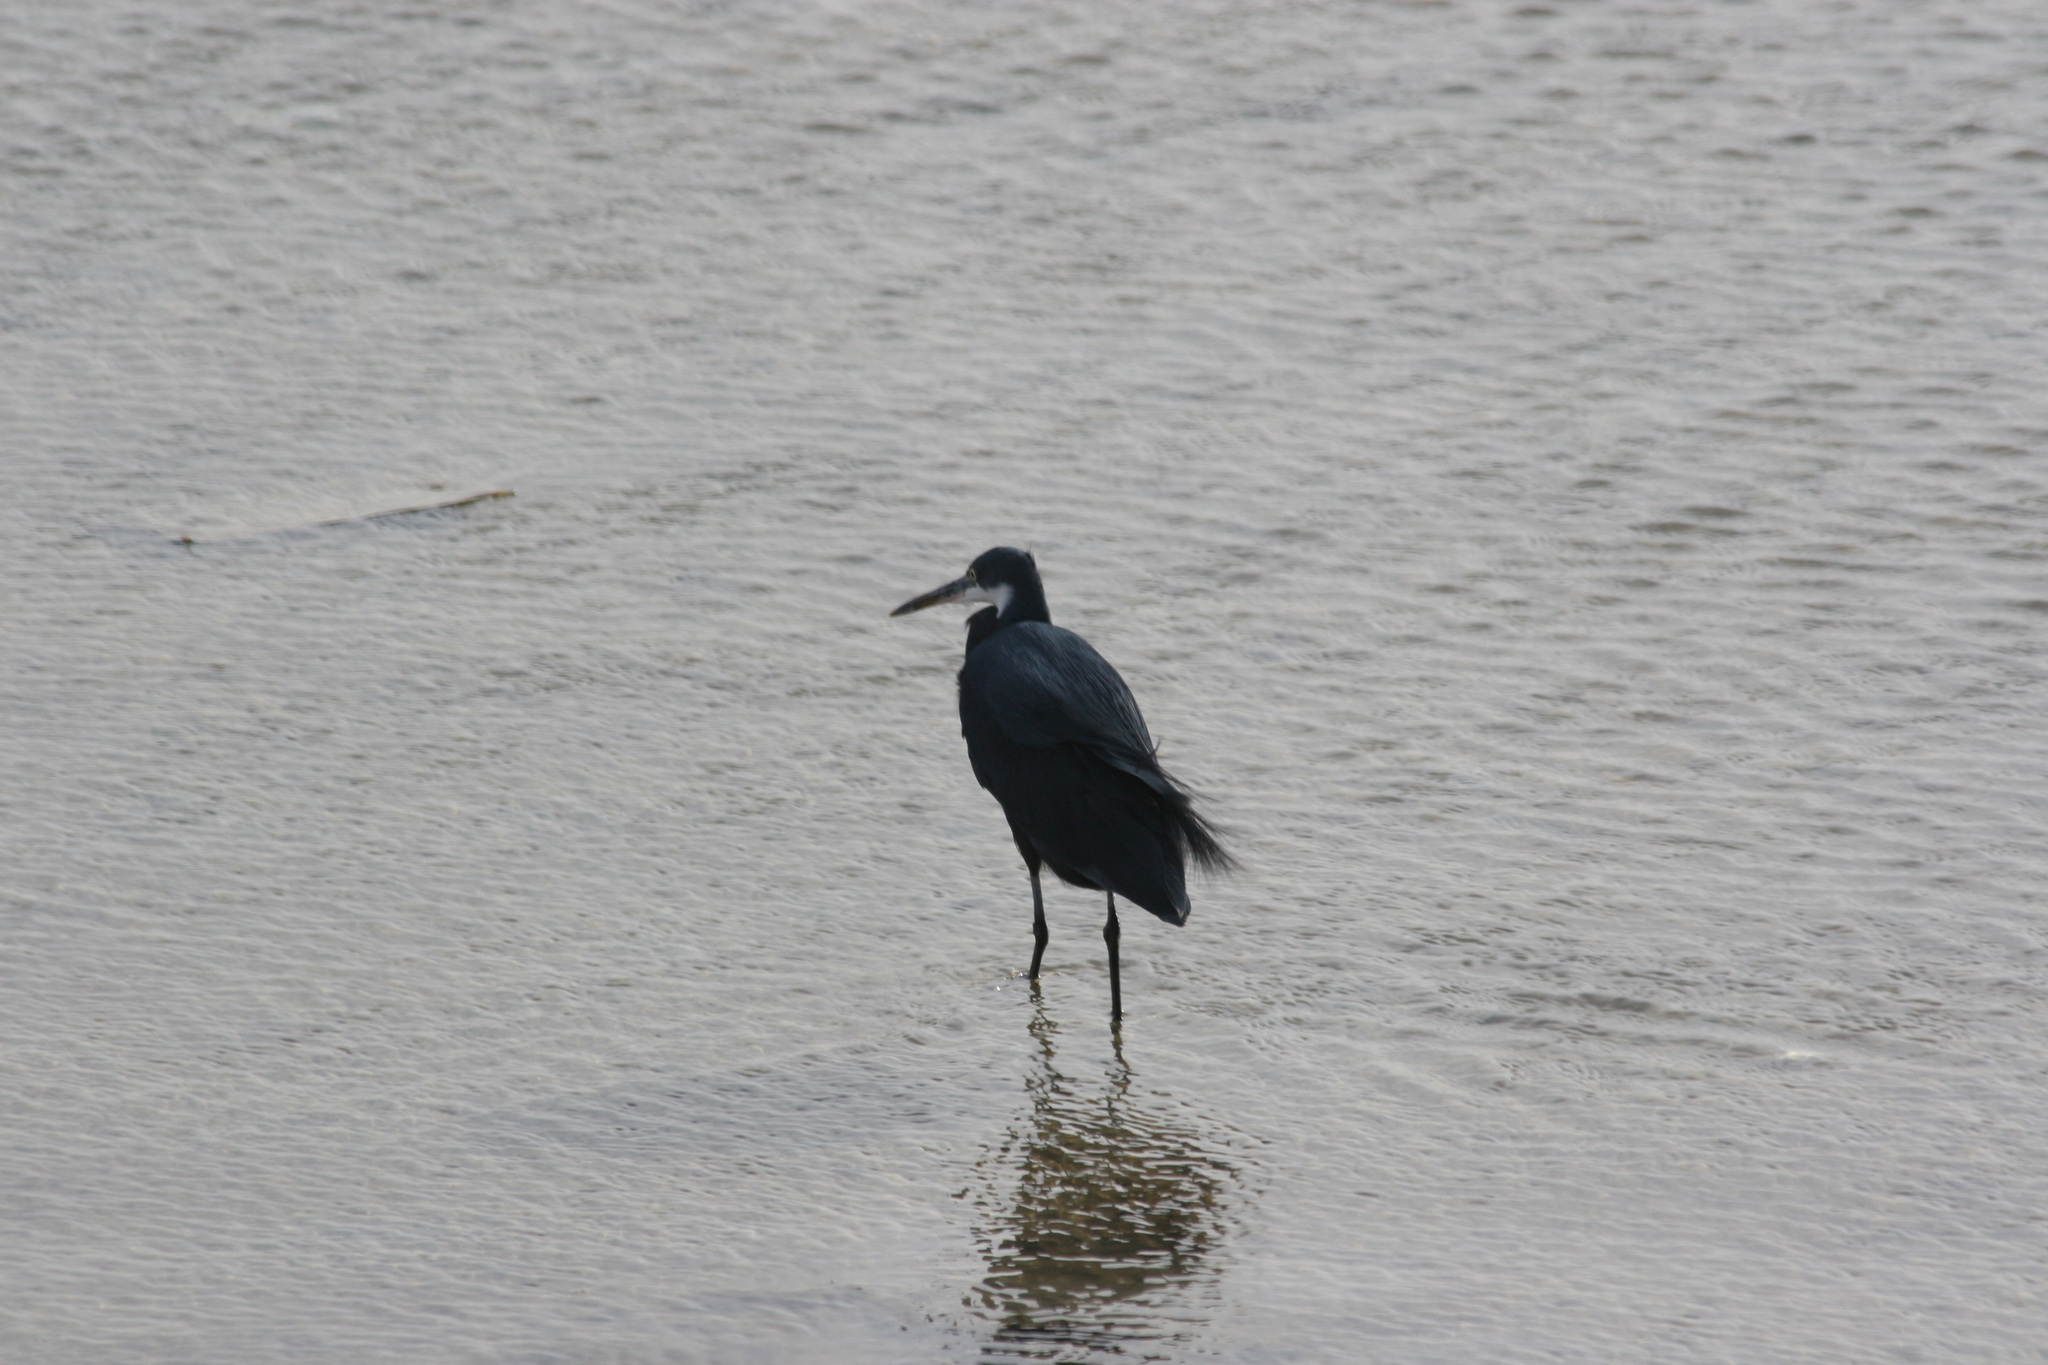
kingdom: Animalia
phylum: Chordata
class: Aves
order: Pelecaniformes
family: Ardeidae
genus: Egretta
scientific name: Egretta gularis
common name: Western reef-heron
